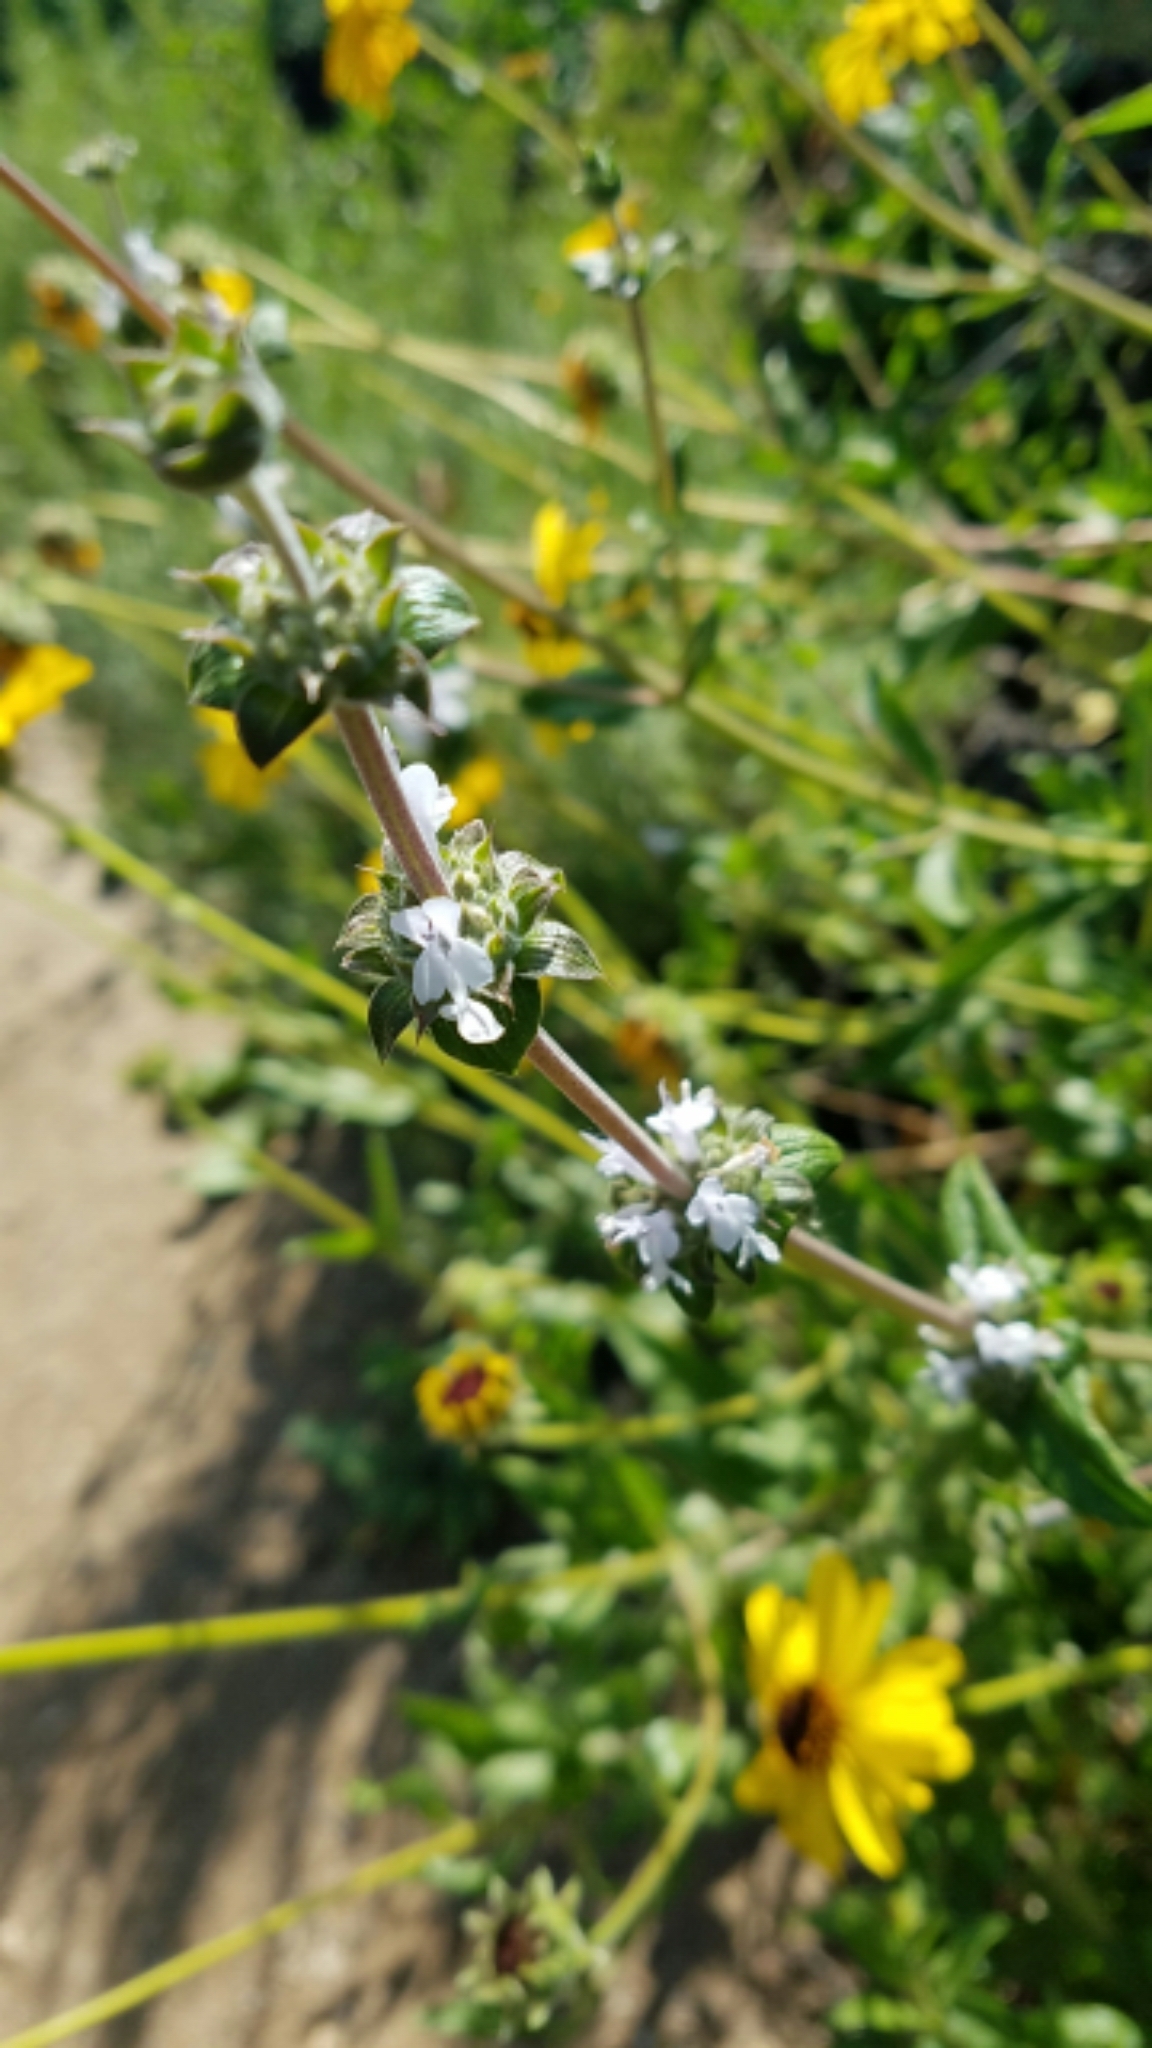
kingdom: Plantae
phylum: Tracheophyta
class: Magnoliopsida
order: Lamiales
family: Lamiaceae
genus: Salvia
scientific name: Salvia mellifera
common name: Black sage
